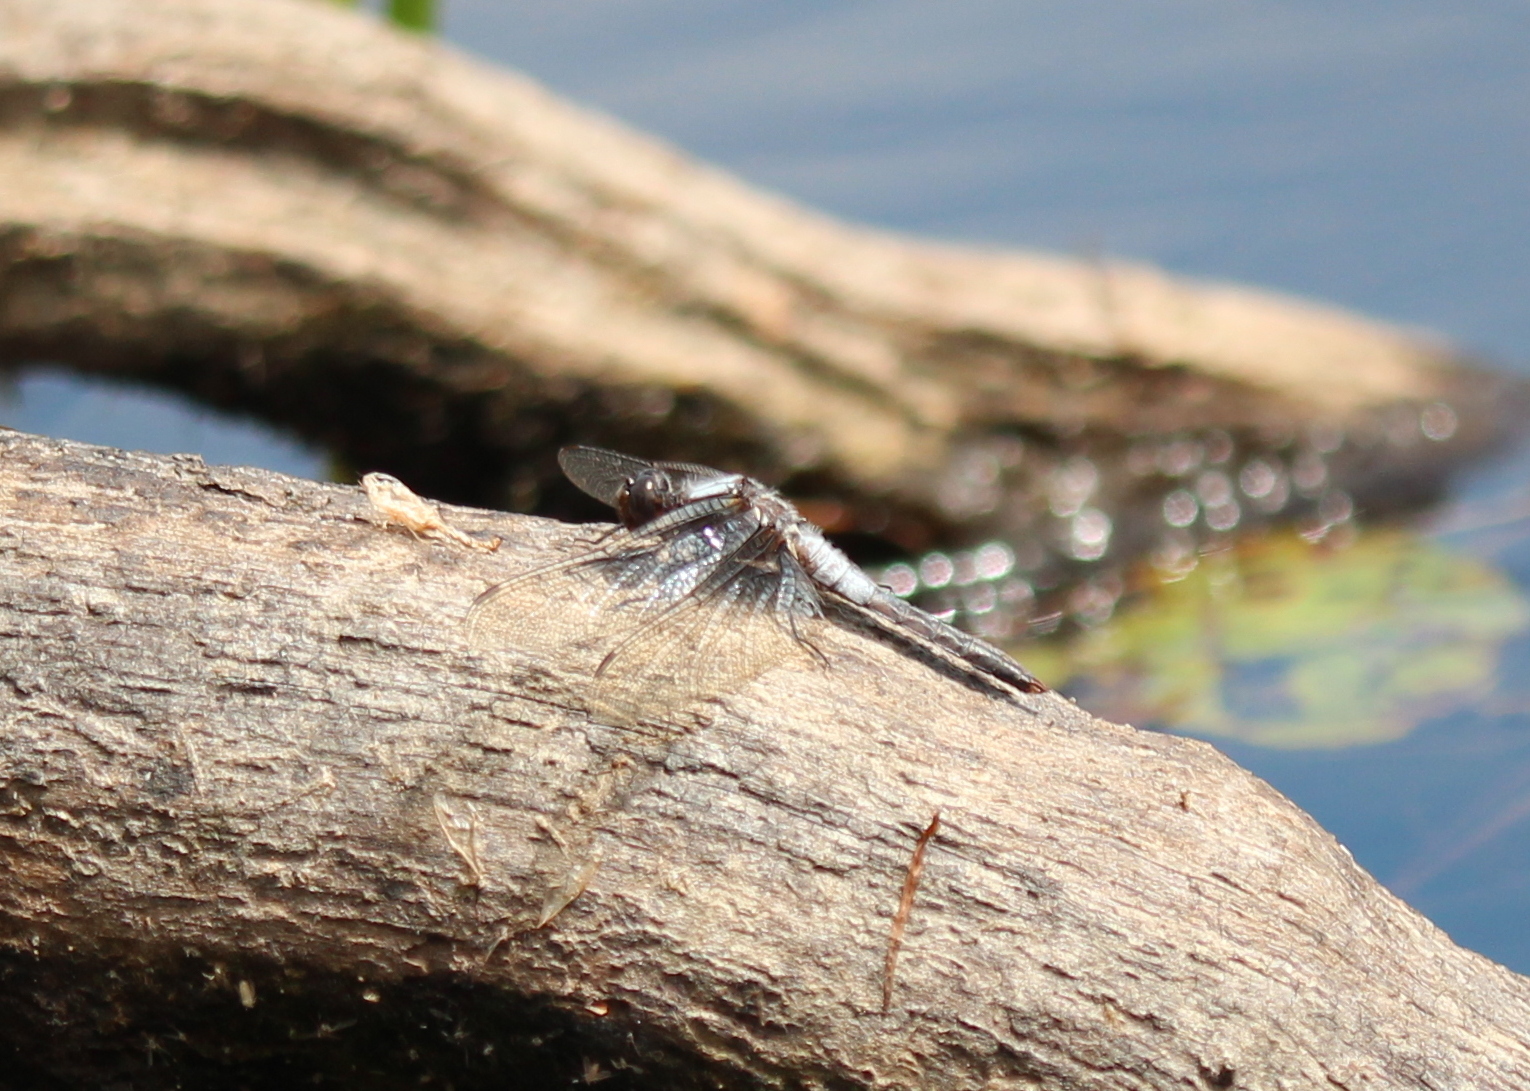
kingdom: Animalia
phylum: Arthropoda
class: Insecta
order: Odonata
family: Libellulidae
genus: Ladona
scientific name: Ladona julia
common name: Chalk-fronted corporal
